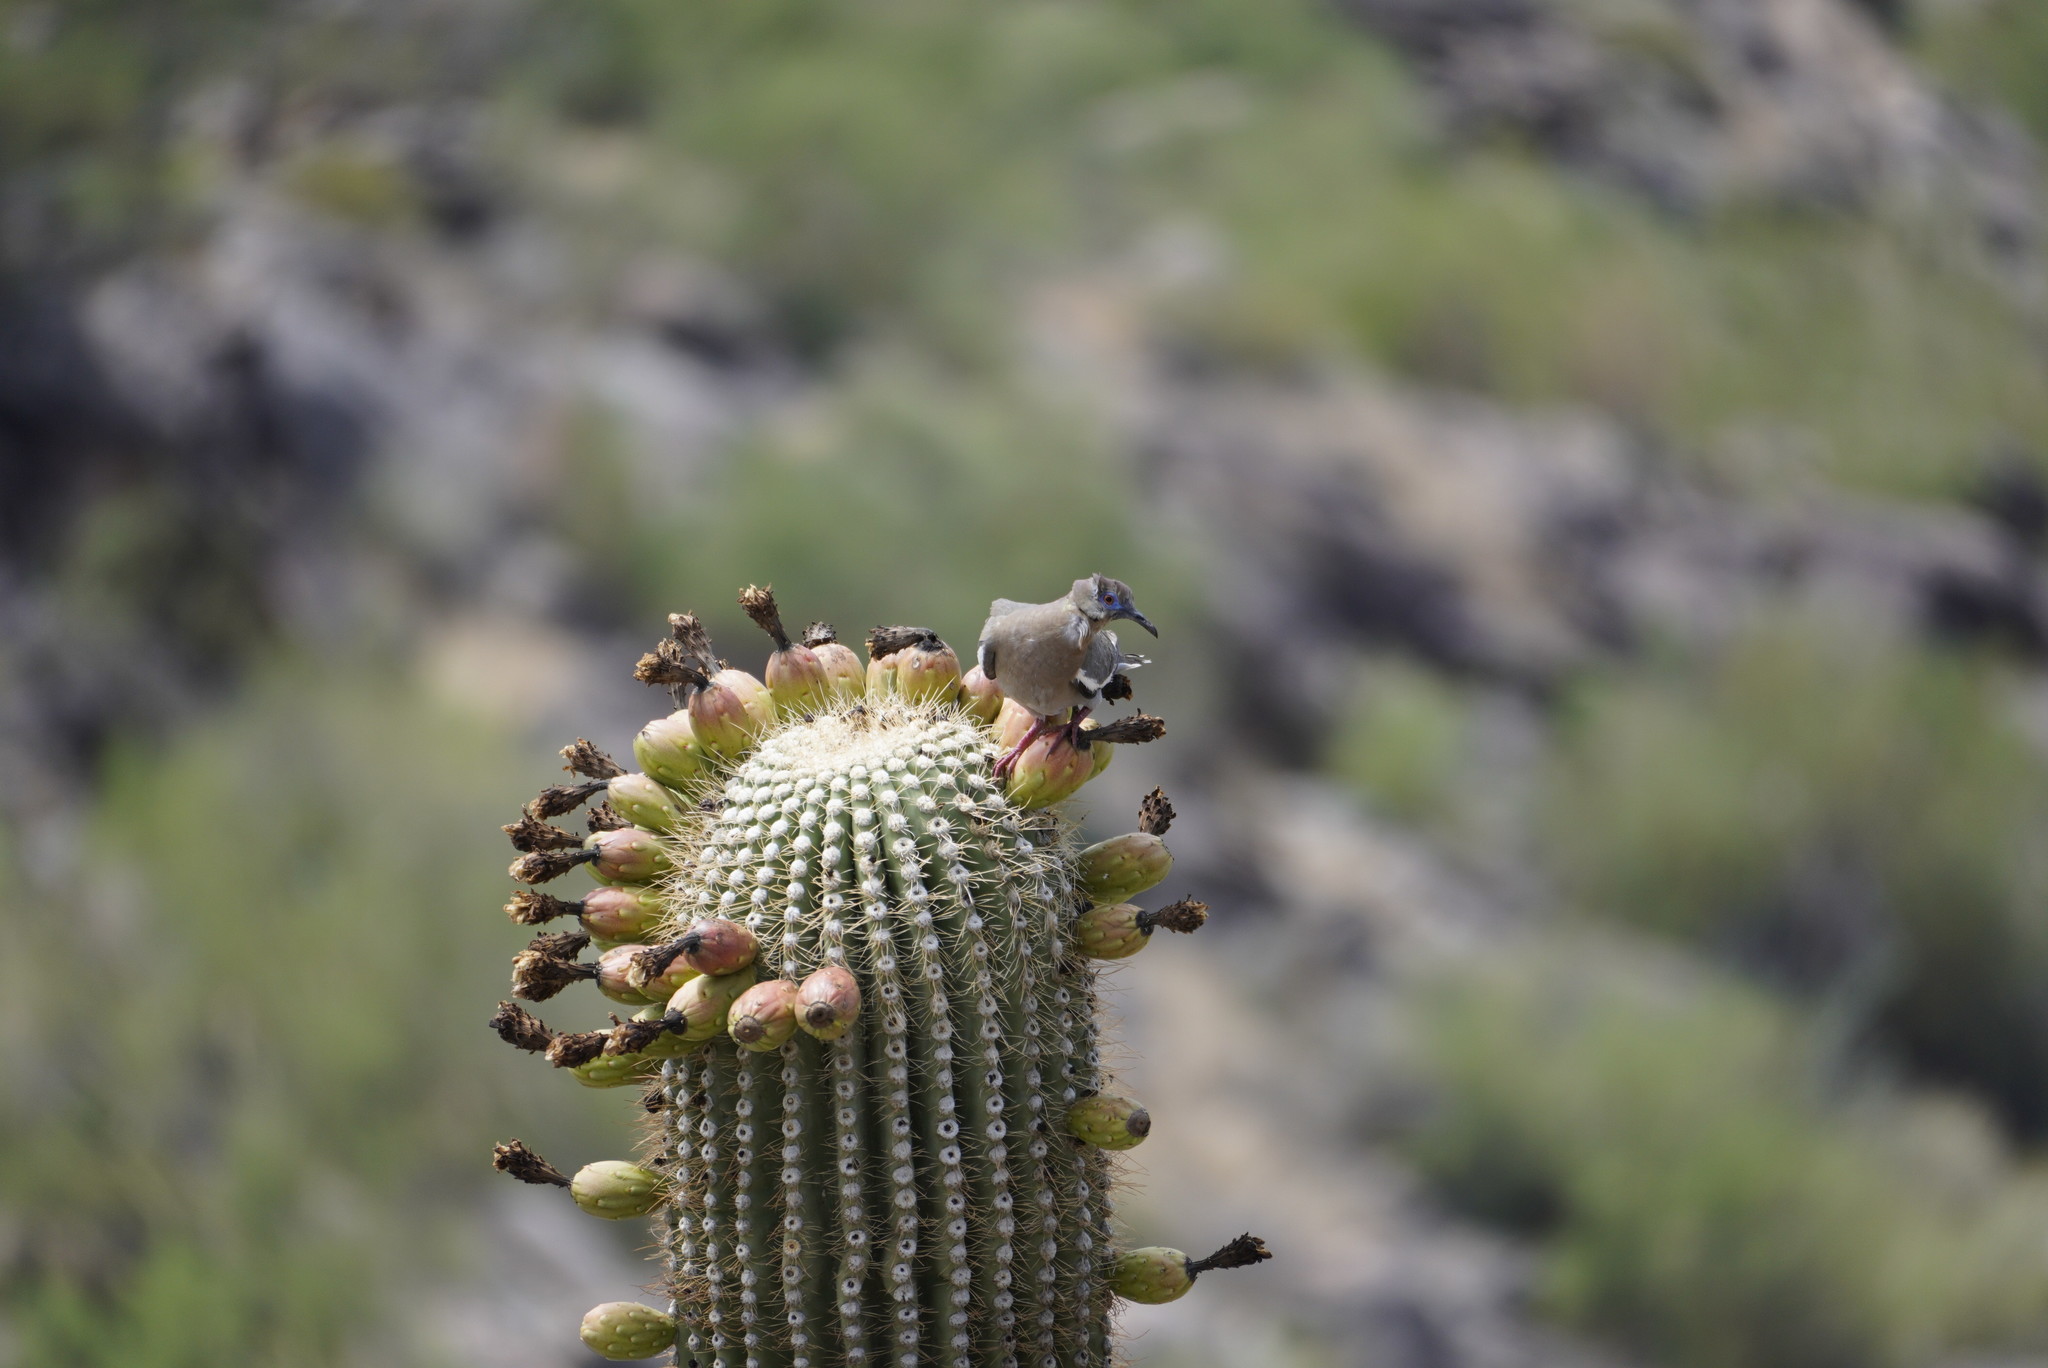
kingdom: Animalia
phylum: Chordata
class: Aves
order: Columbiformes
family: Columbidae
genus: Zenaida
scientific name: Zenaida asiatica
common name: White-winged dove
